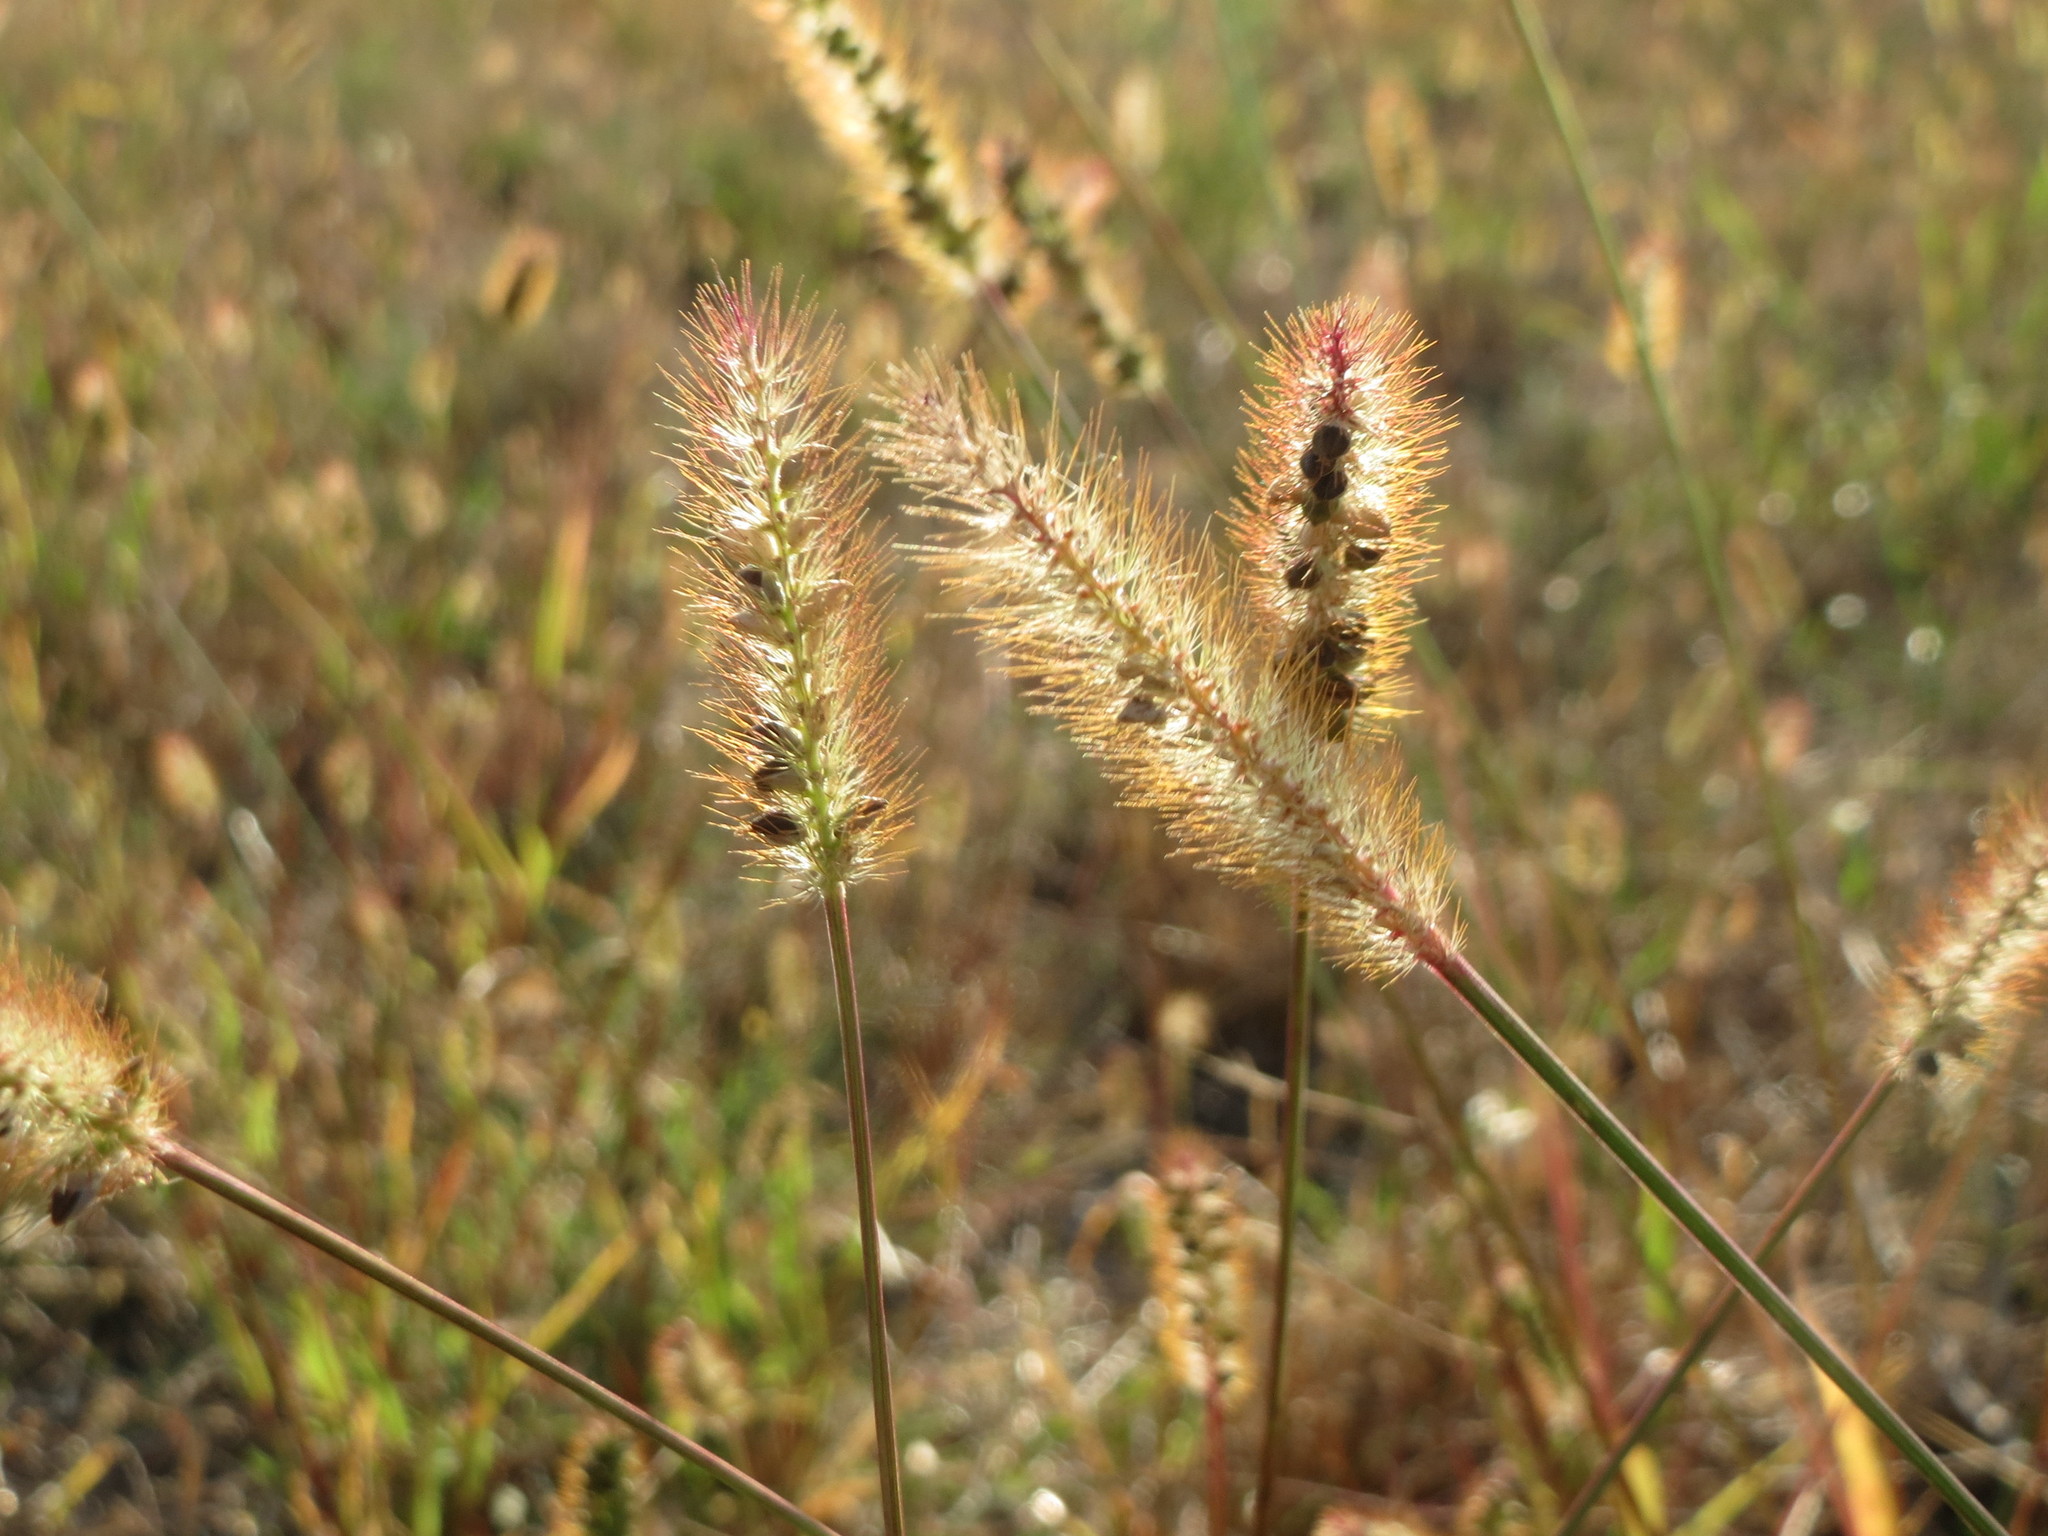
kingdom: Plantae
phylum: Tracheophyta
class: Liliopsida
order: Poales
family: Poaceae
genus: Setaria
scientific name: Setaria pumila
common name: Yellow bristle-grass
